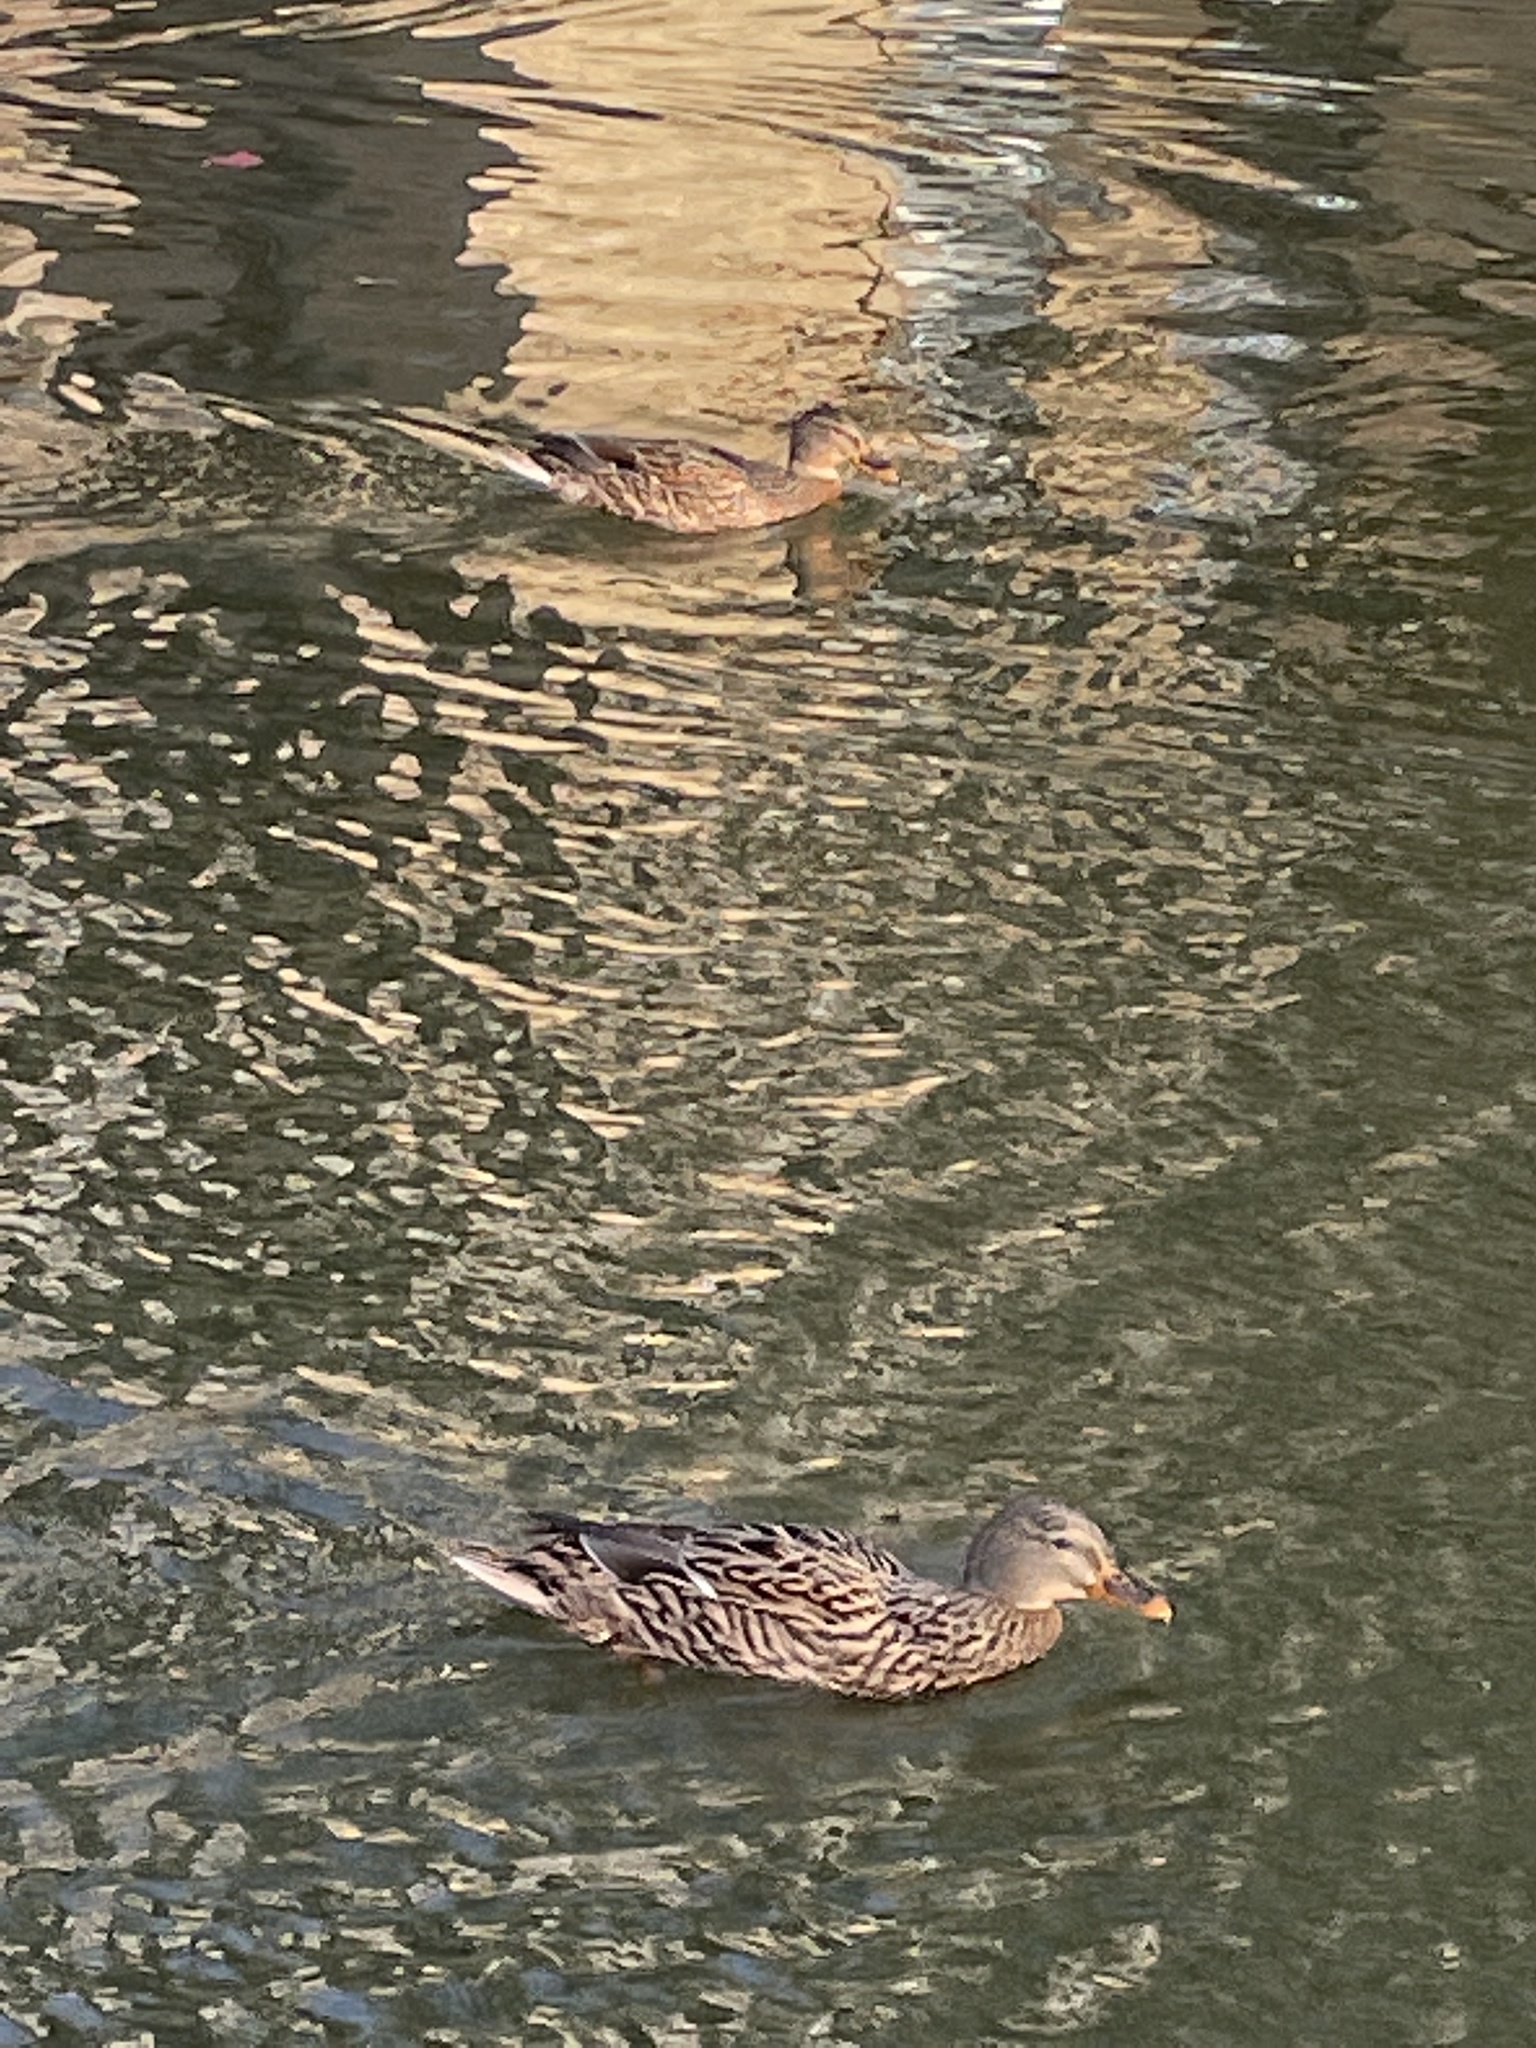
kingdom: Animalia
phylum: Chordata
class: Aves
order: Anseriformes
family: Anatidae
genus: Anas
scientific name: Anas platyrhynchos
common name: Mallard
